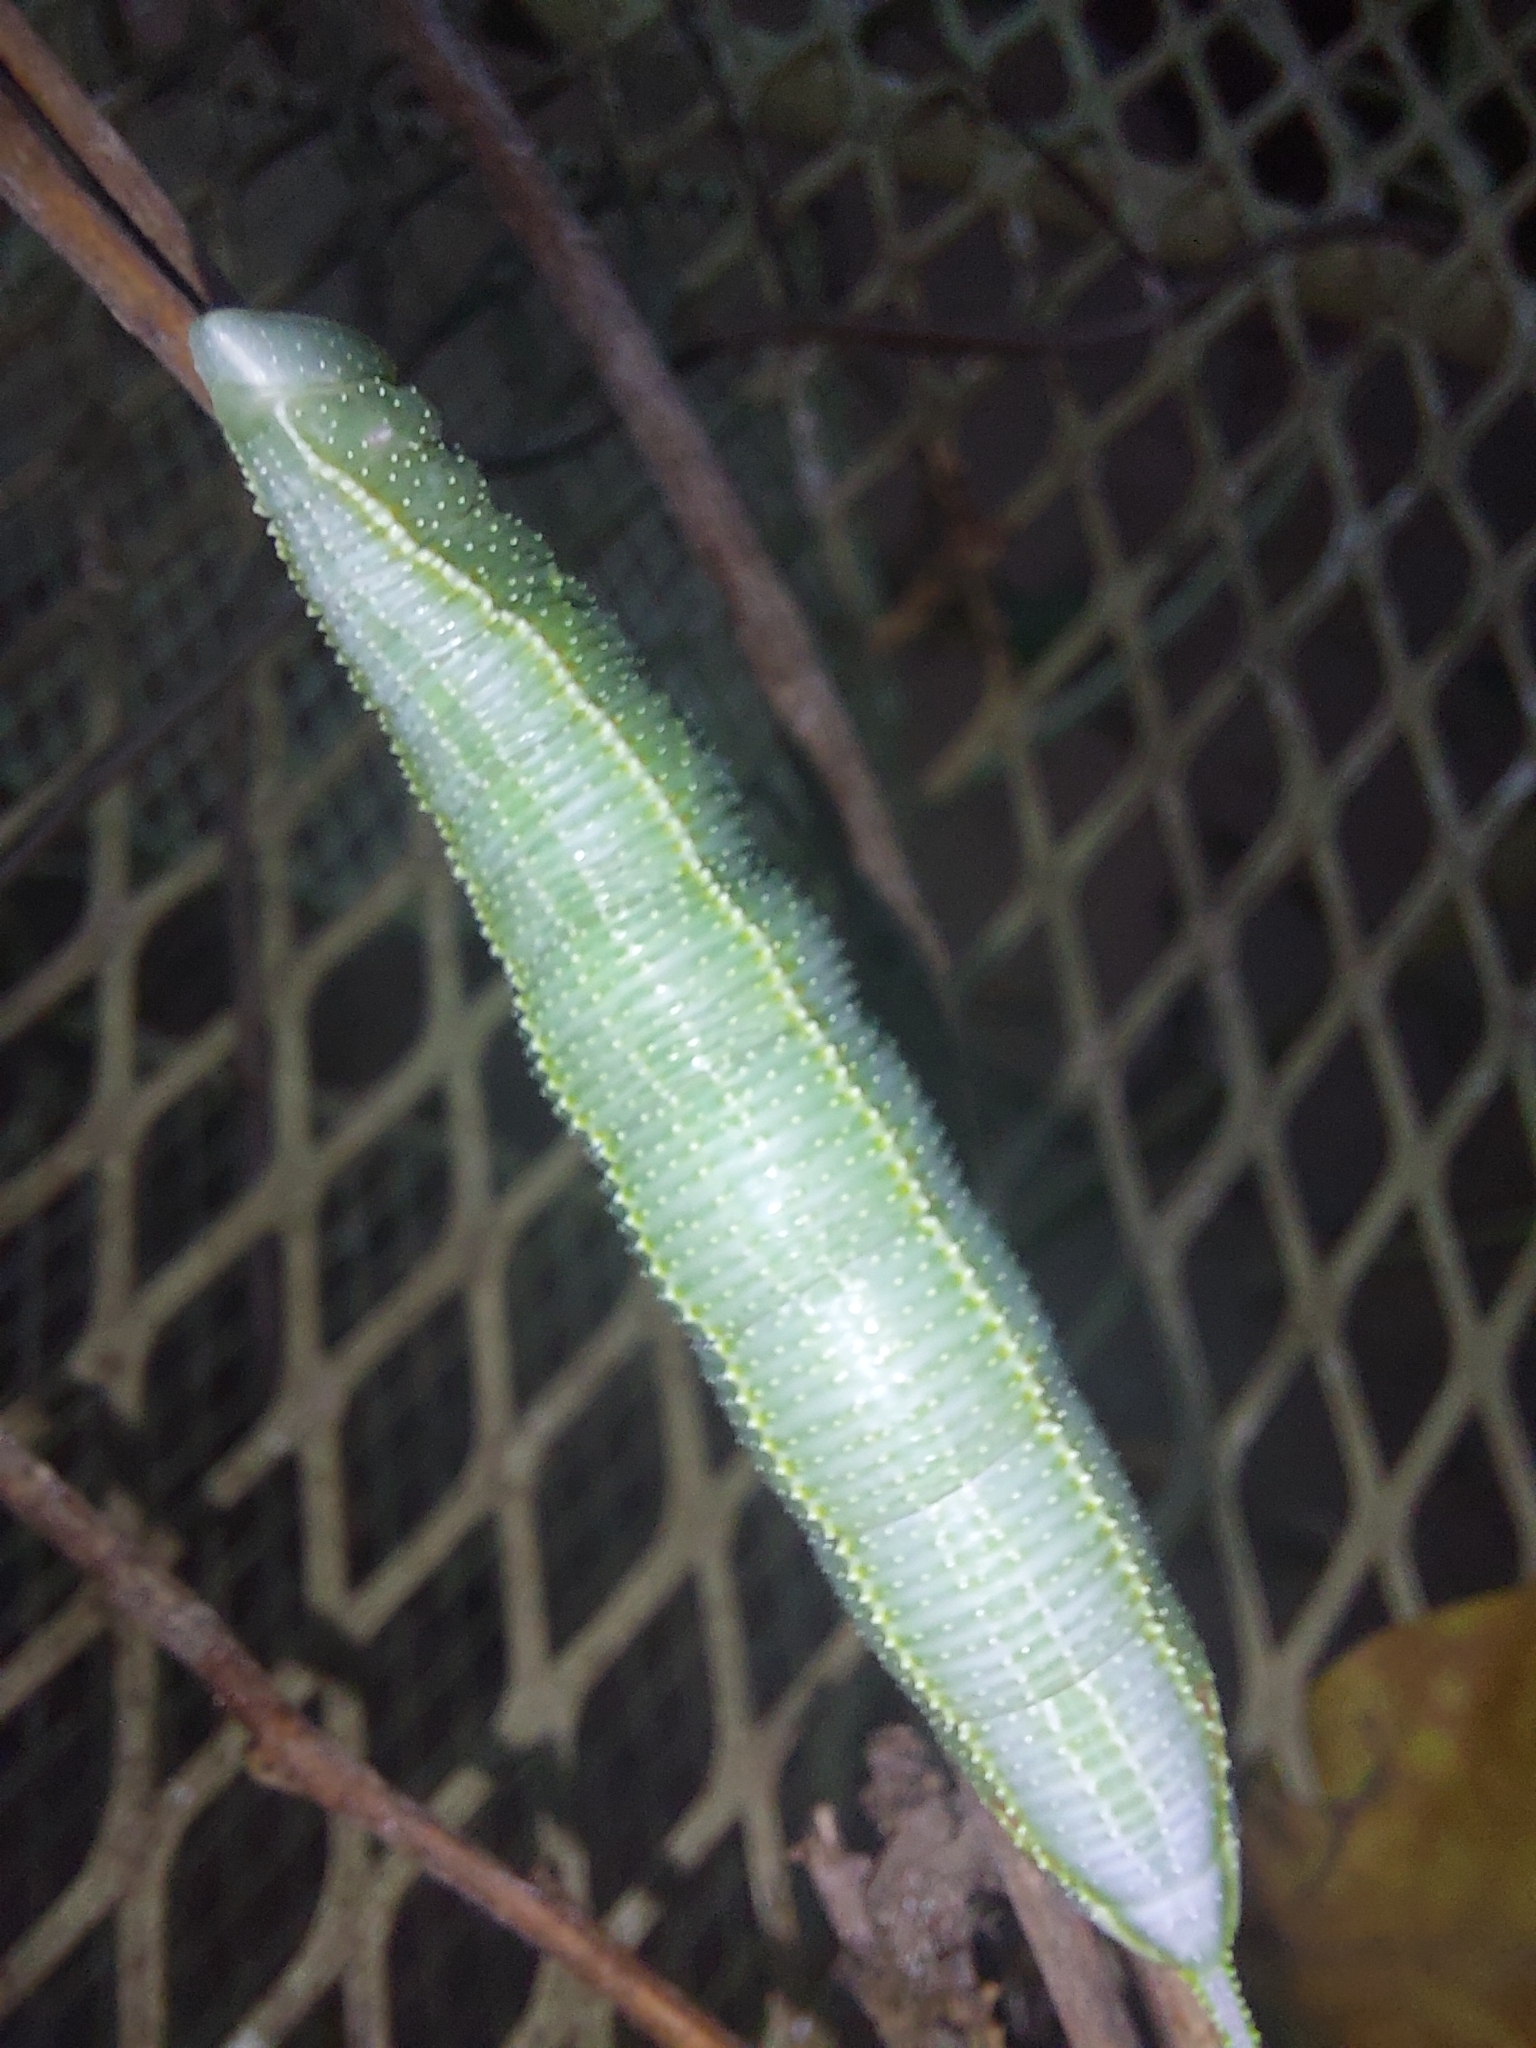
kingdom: Animalia
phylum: Arthropoda
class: Insecta
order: Lepidoptera
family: Sphingidae
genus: Pseudoclanis
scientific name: Pseudoclanis postica
